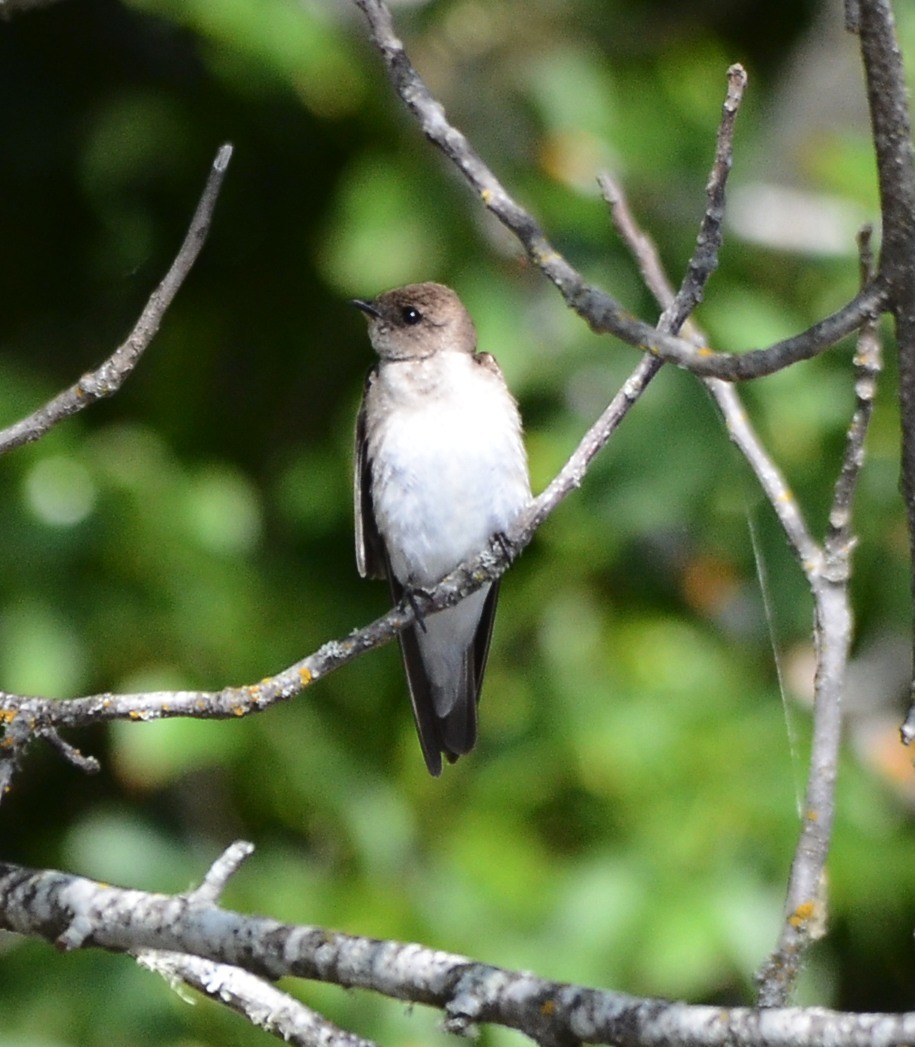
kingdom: Animalia
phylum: Chordata
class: Aves
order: Passeriformes
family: Hirundinidae
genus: Stelgidopteryx
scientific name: Stelgidopteryx serripennis
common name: Northern rough-winged swallow
